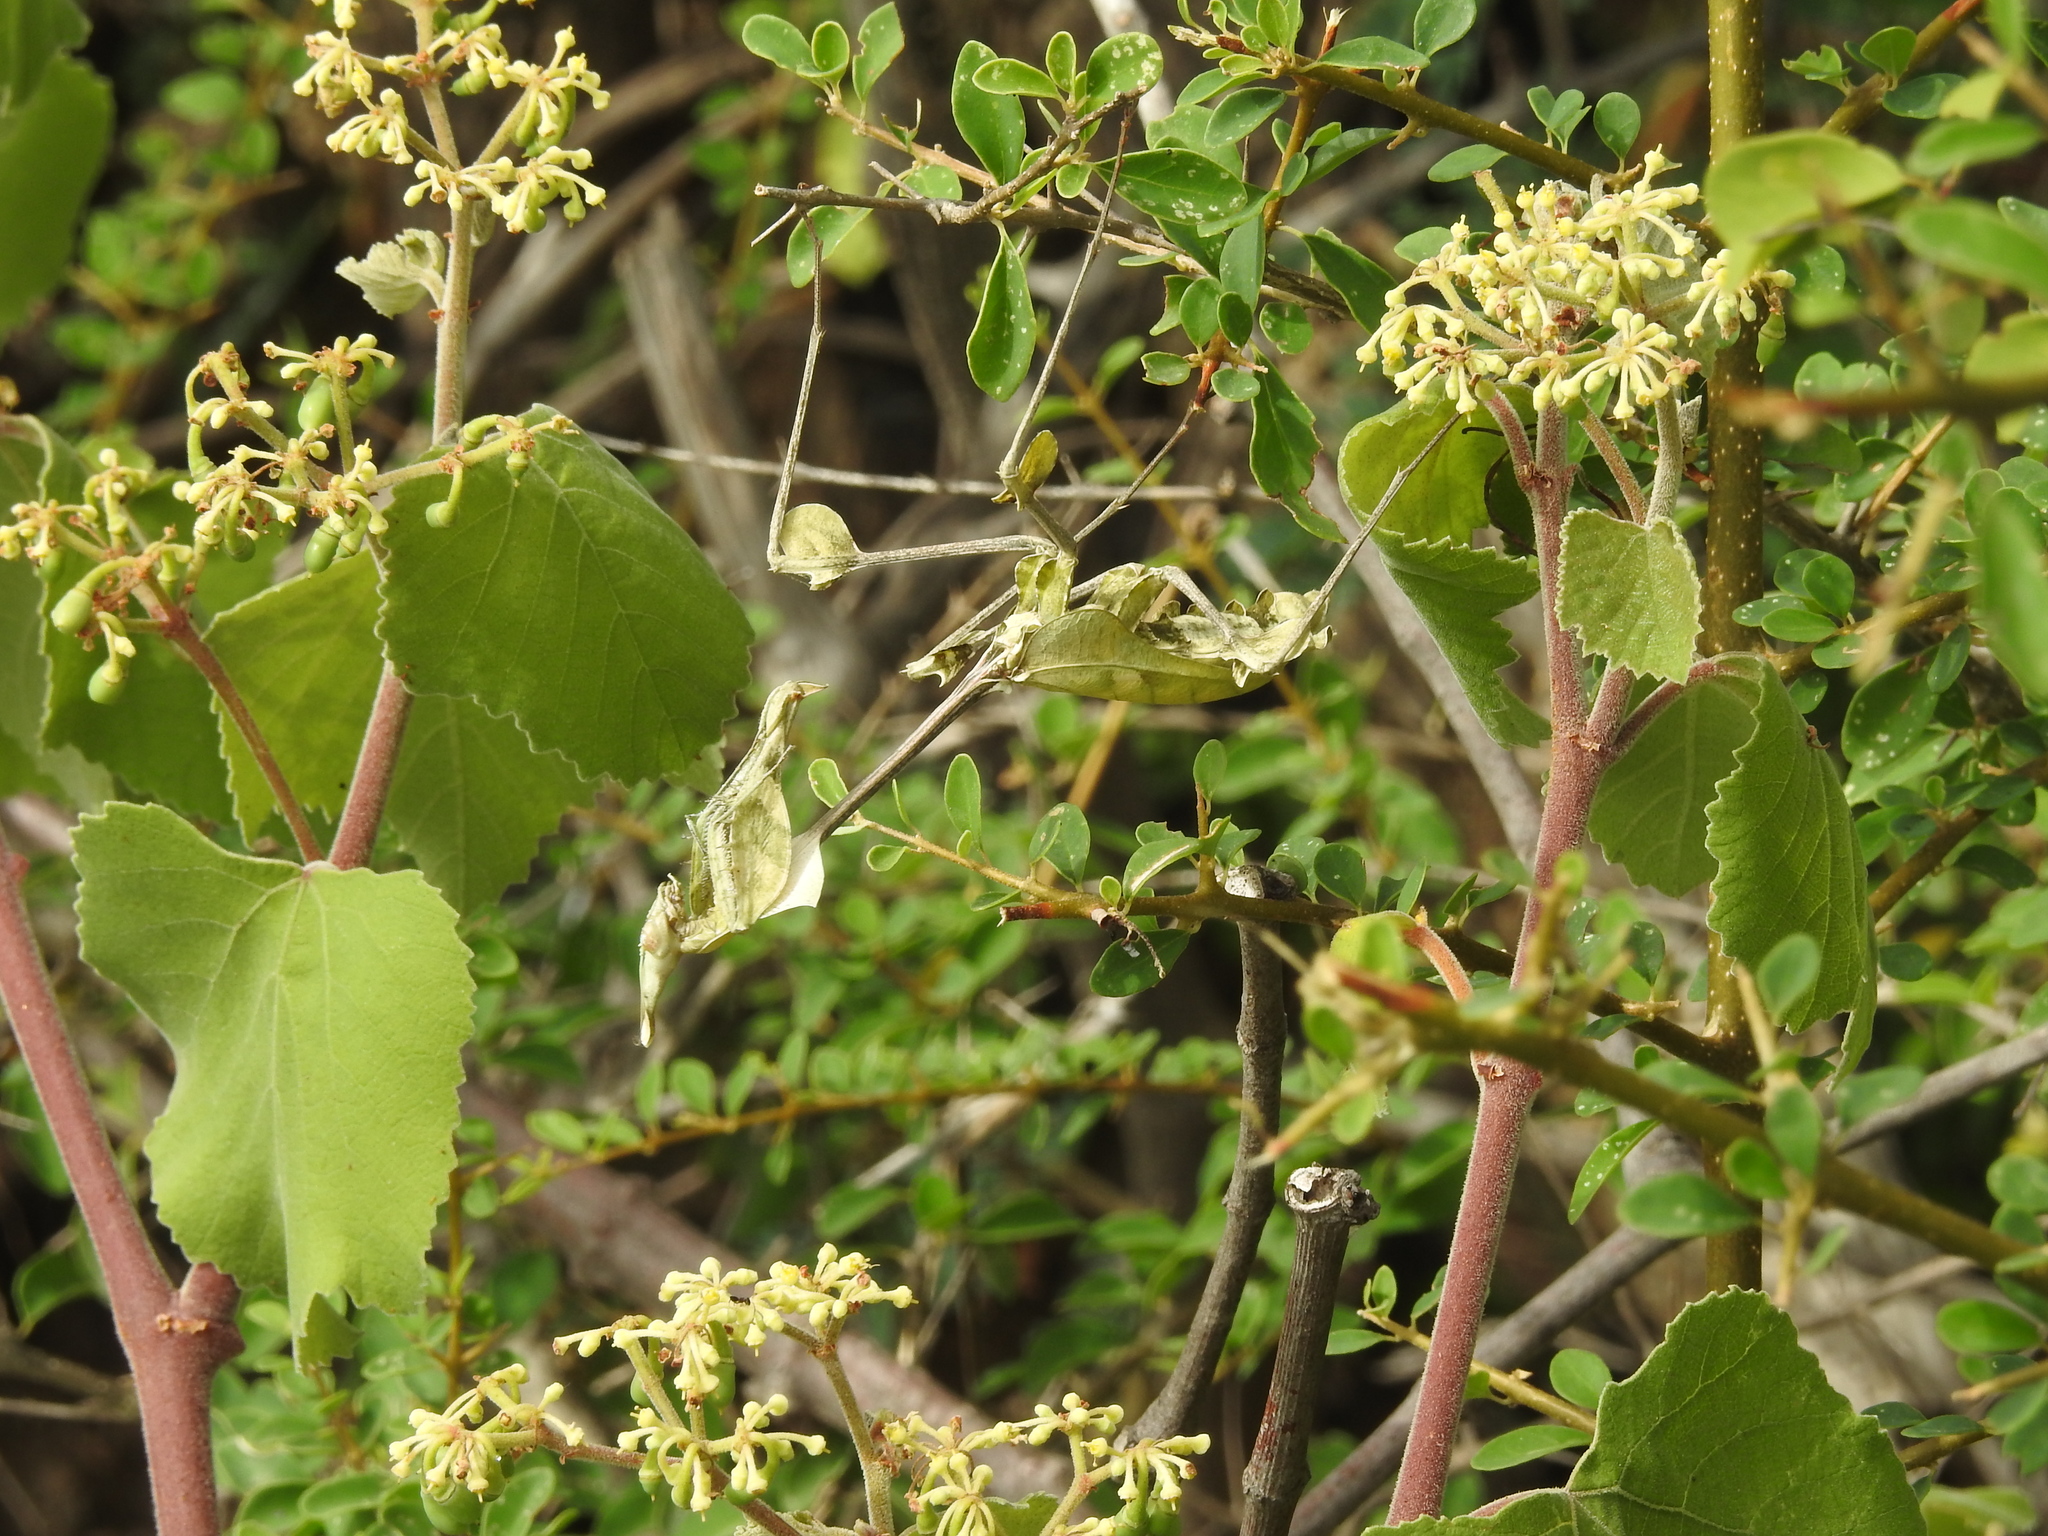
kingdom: Animalia
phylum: Arthropoda
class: Insecta
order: Mantodea
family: Empusidae
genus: Gongylus
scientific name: Gongylus gongylodes
